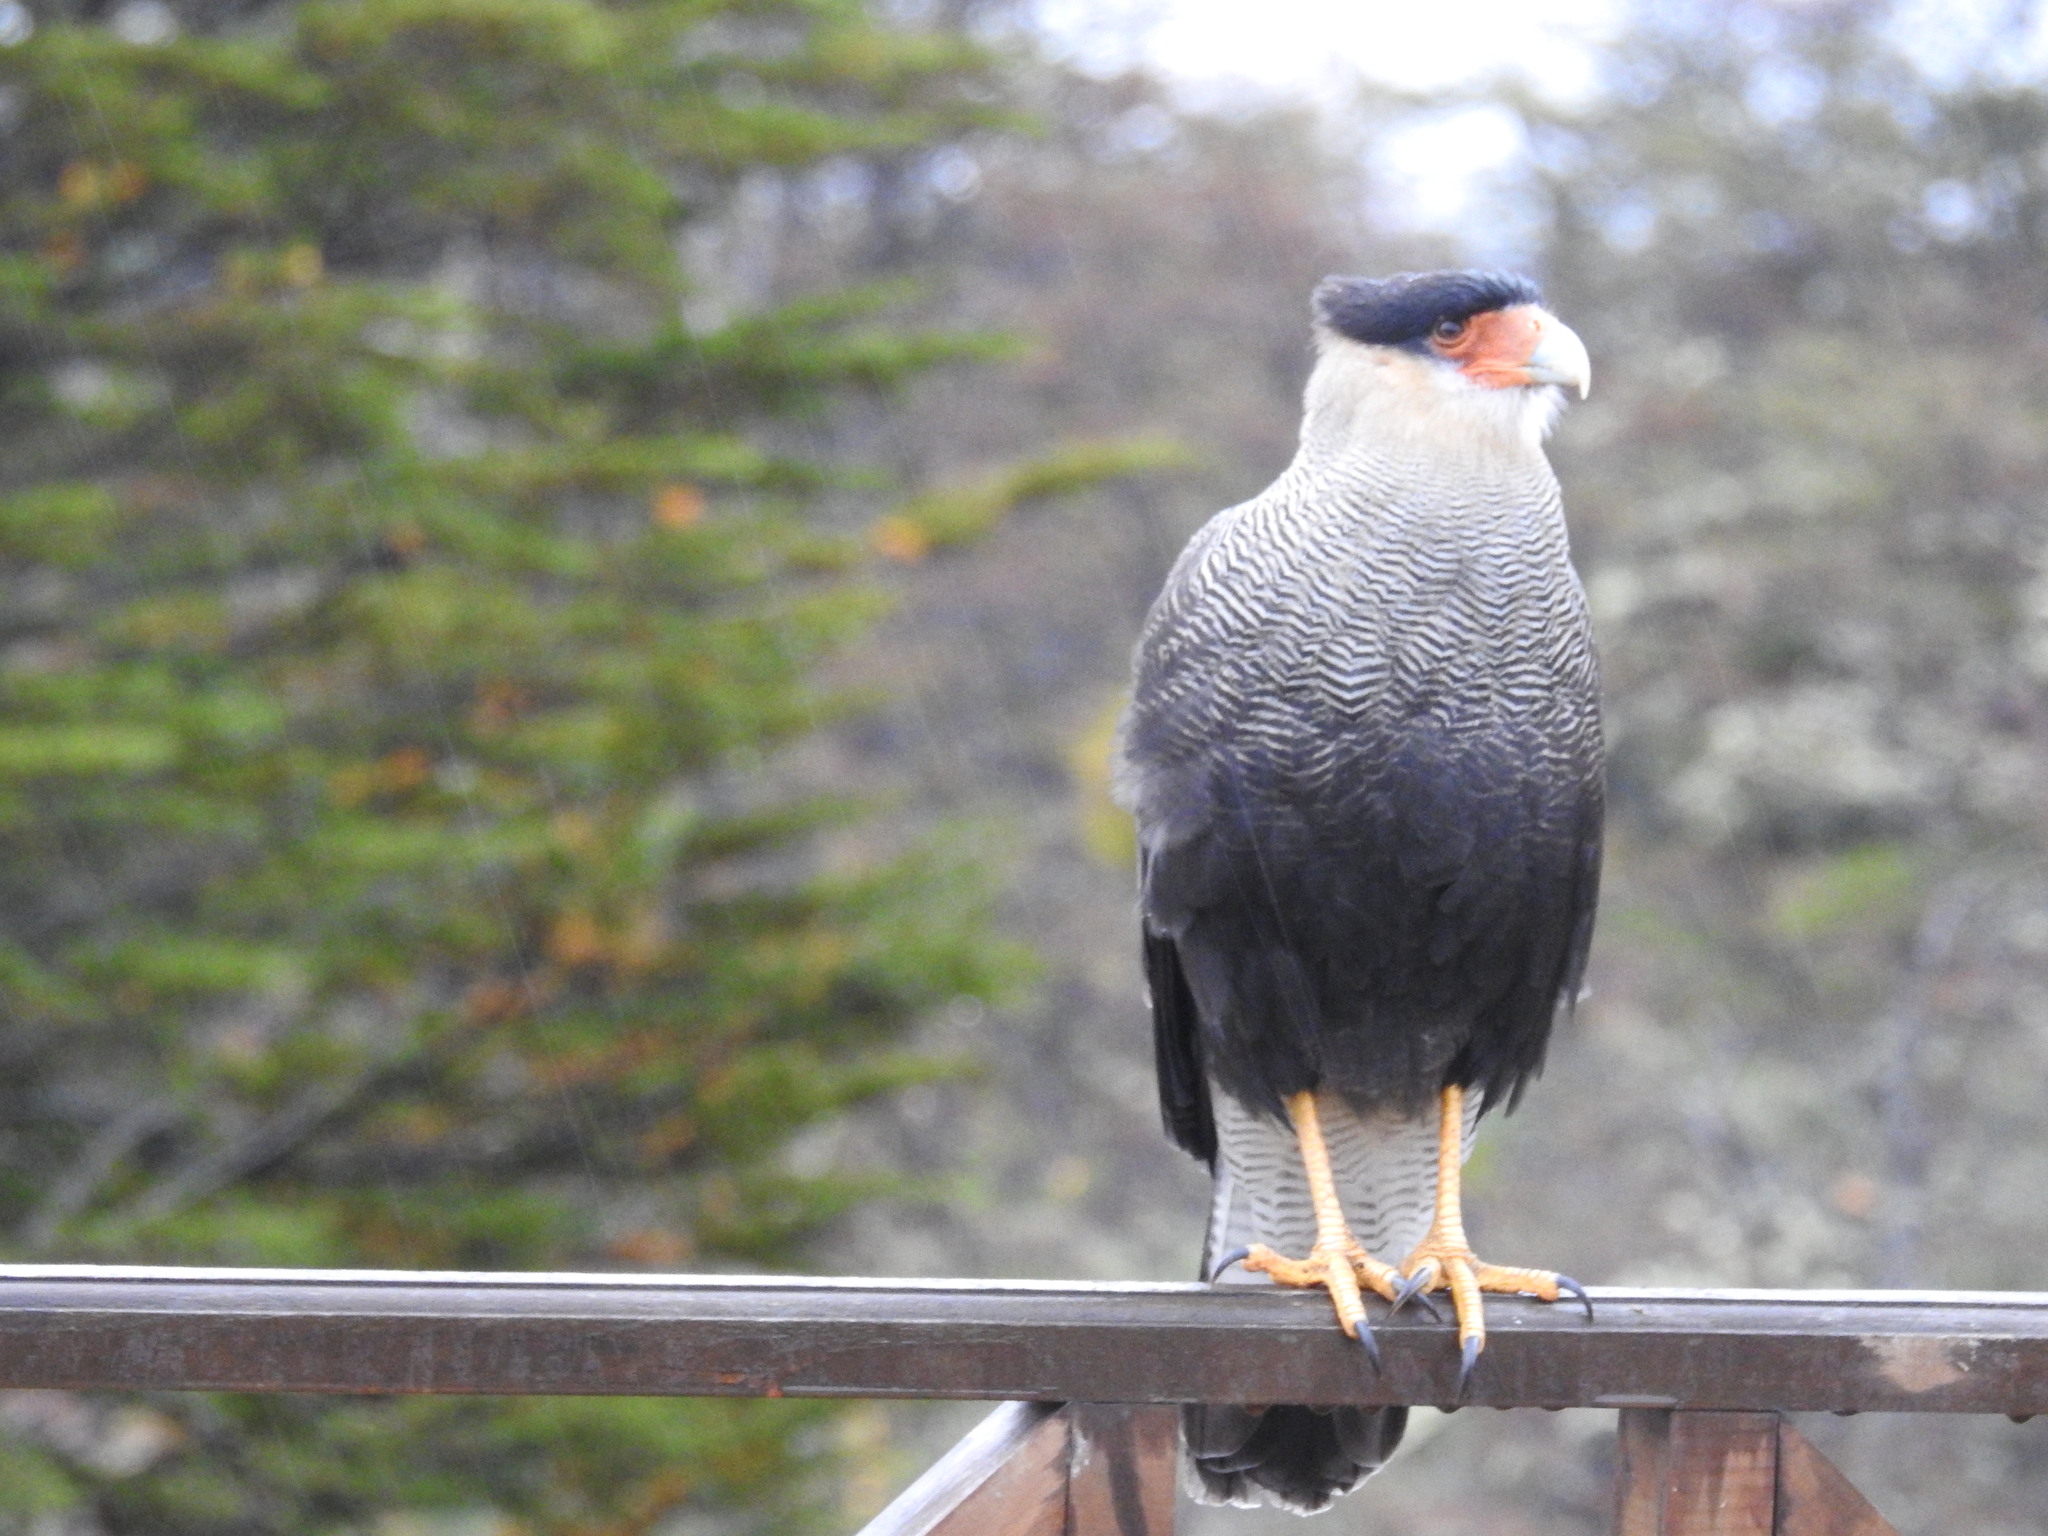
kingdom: Animalia
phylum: Chordata
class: Aves
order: Falconiformes
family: Falconidae
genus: Caracara
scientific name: Caracara plancus
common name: Southern caracara
